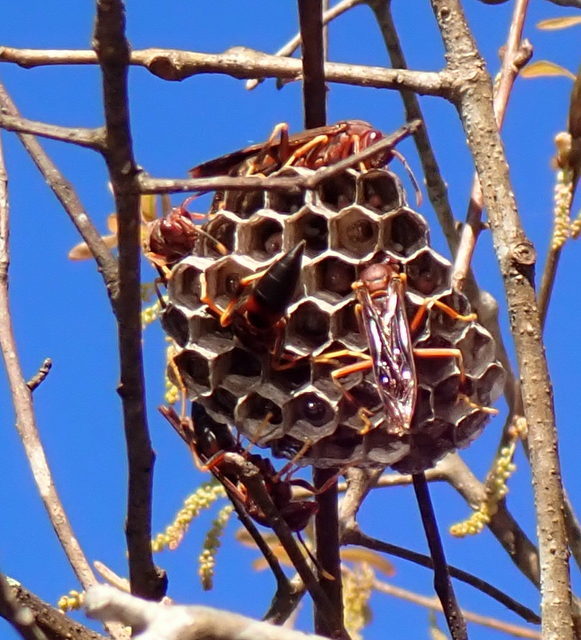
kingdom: Animalia
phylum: Arthropoda
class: Insecta
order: Hymenoptera
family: Eumenidae
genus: Polistes
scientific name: Polistes annularis
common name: Ringed paper wasp
